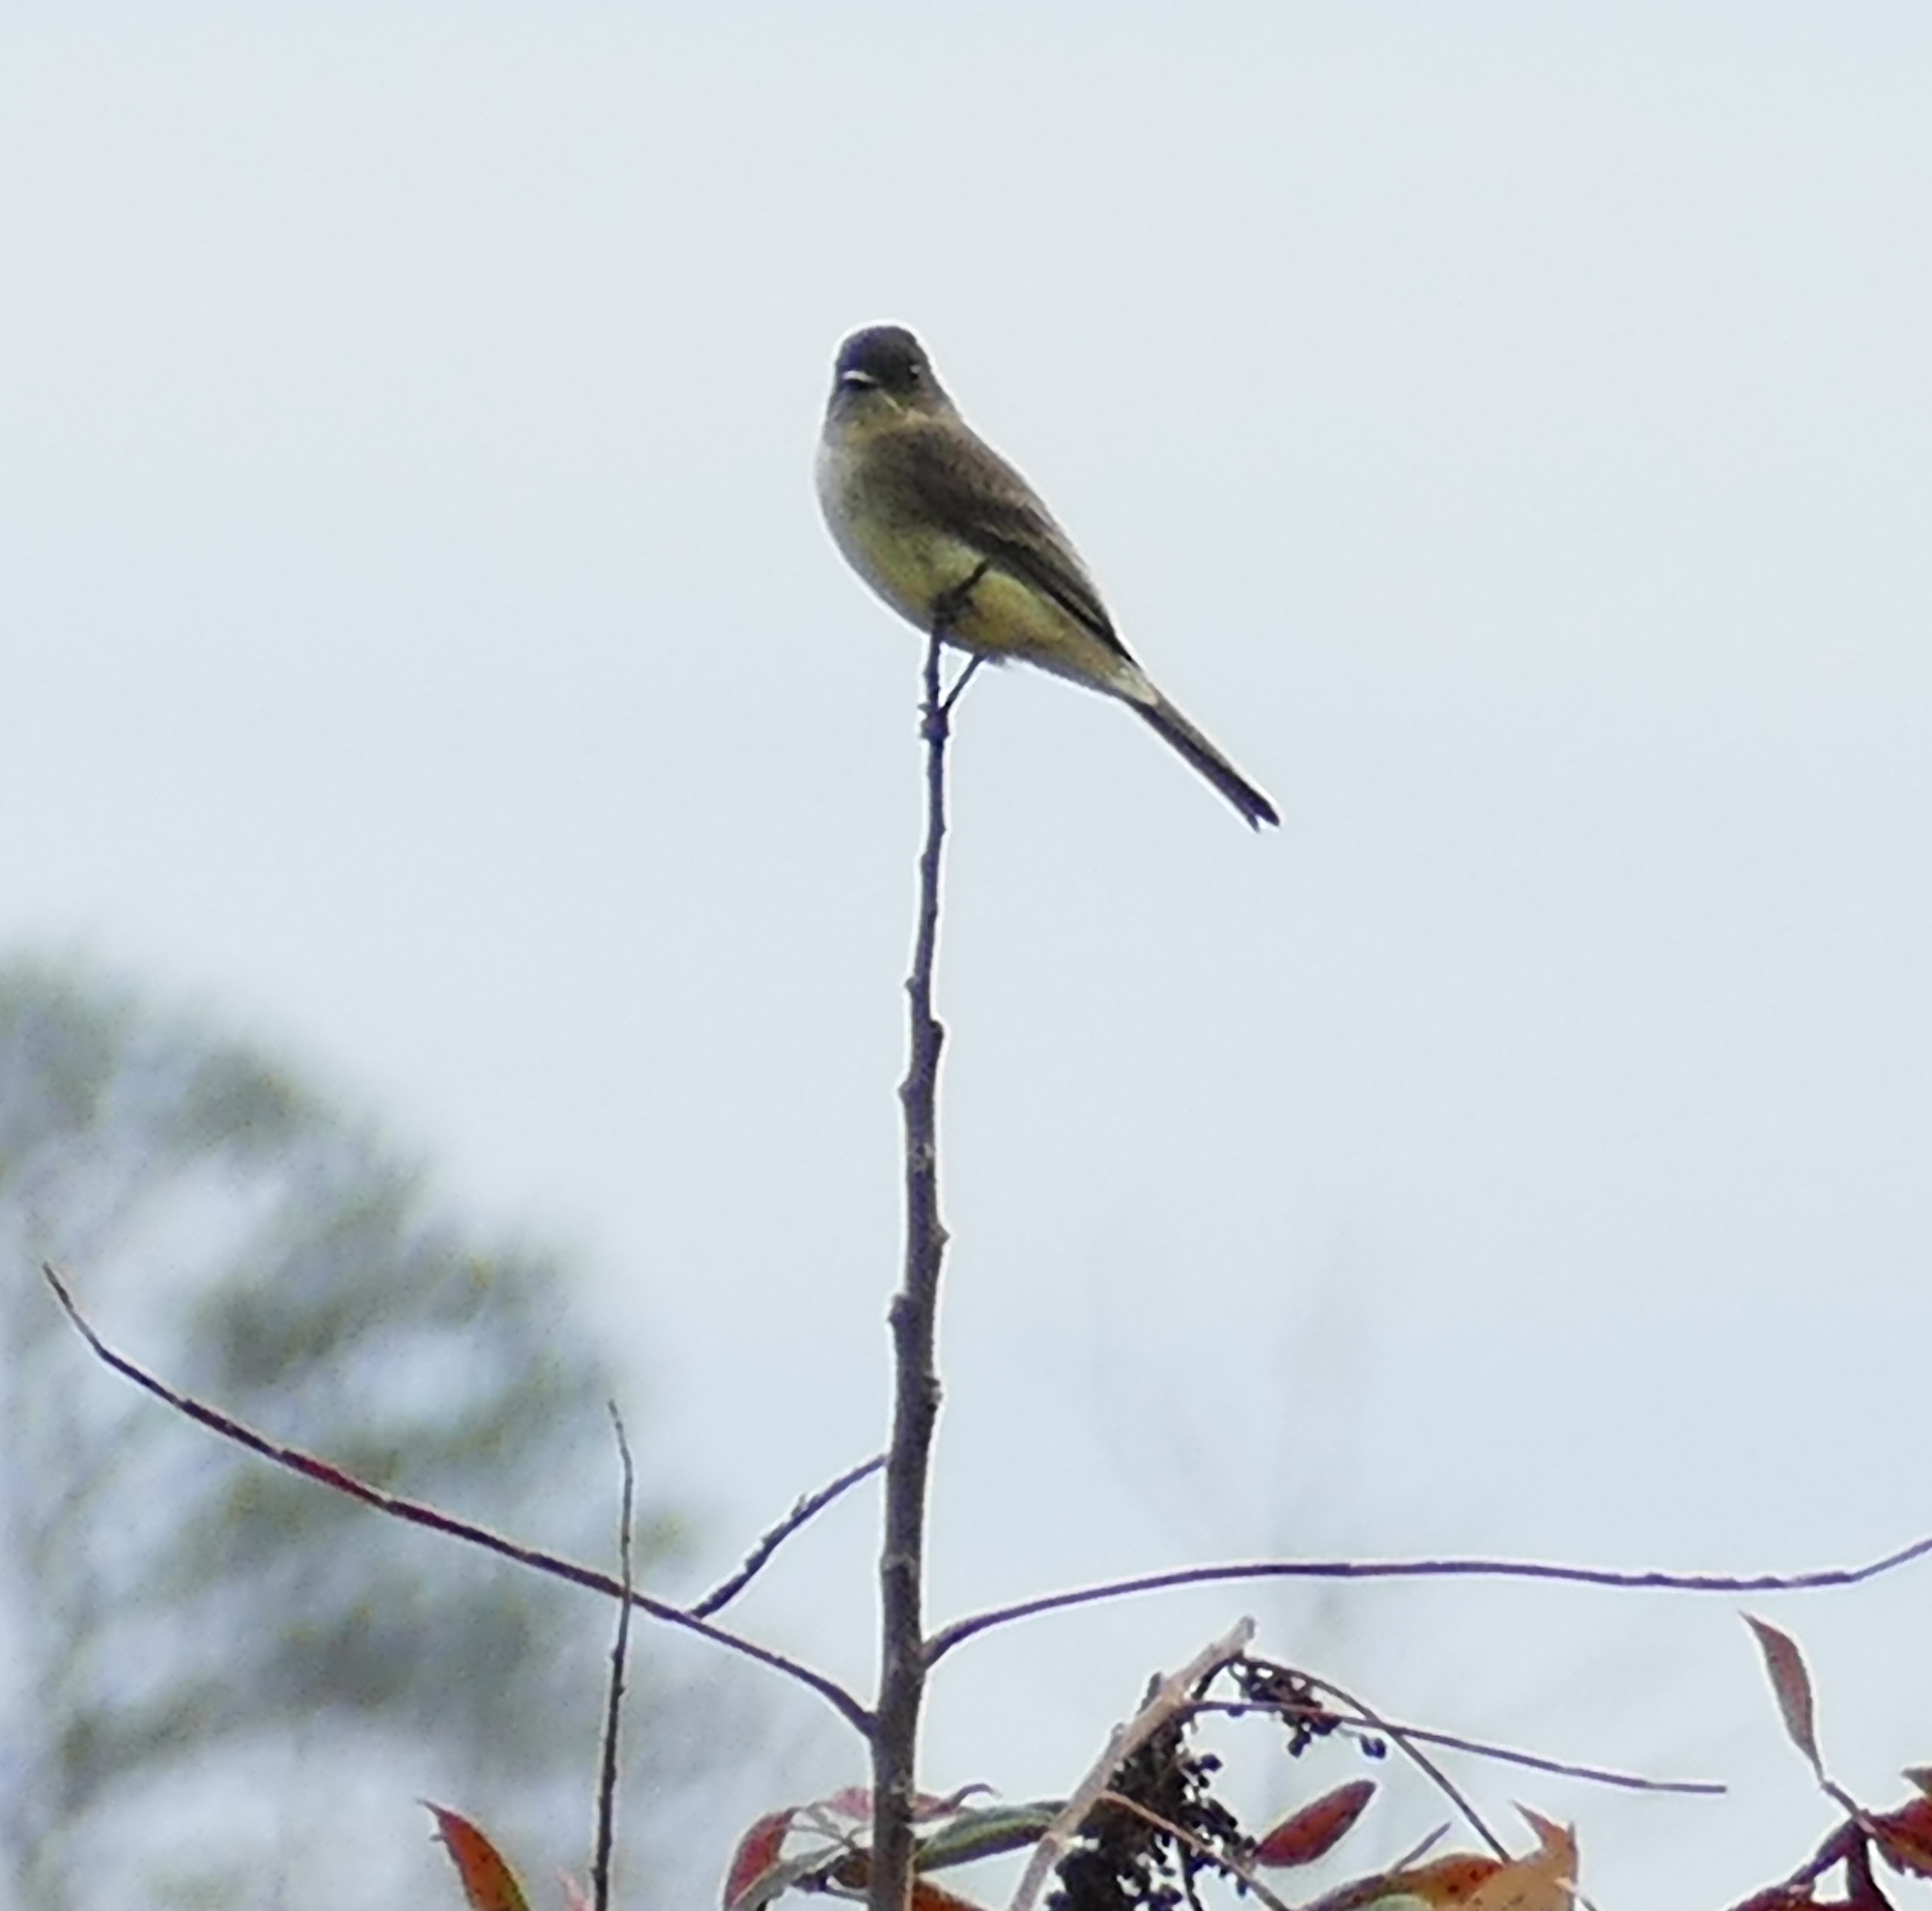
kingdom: Animalia
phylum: Chordata
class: Aves
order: Passeriformes
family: Tyrannidae
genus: Sayornis
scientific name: Sayornis phoebe
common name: Eastern phoebe
